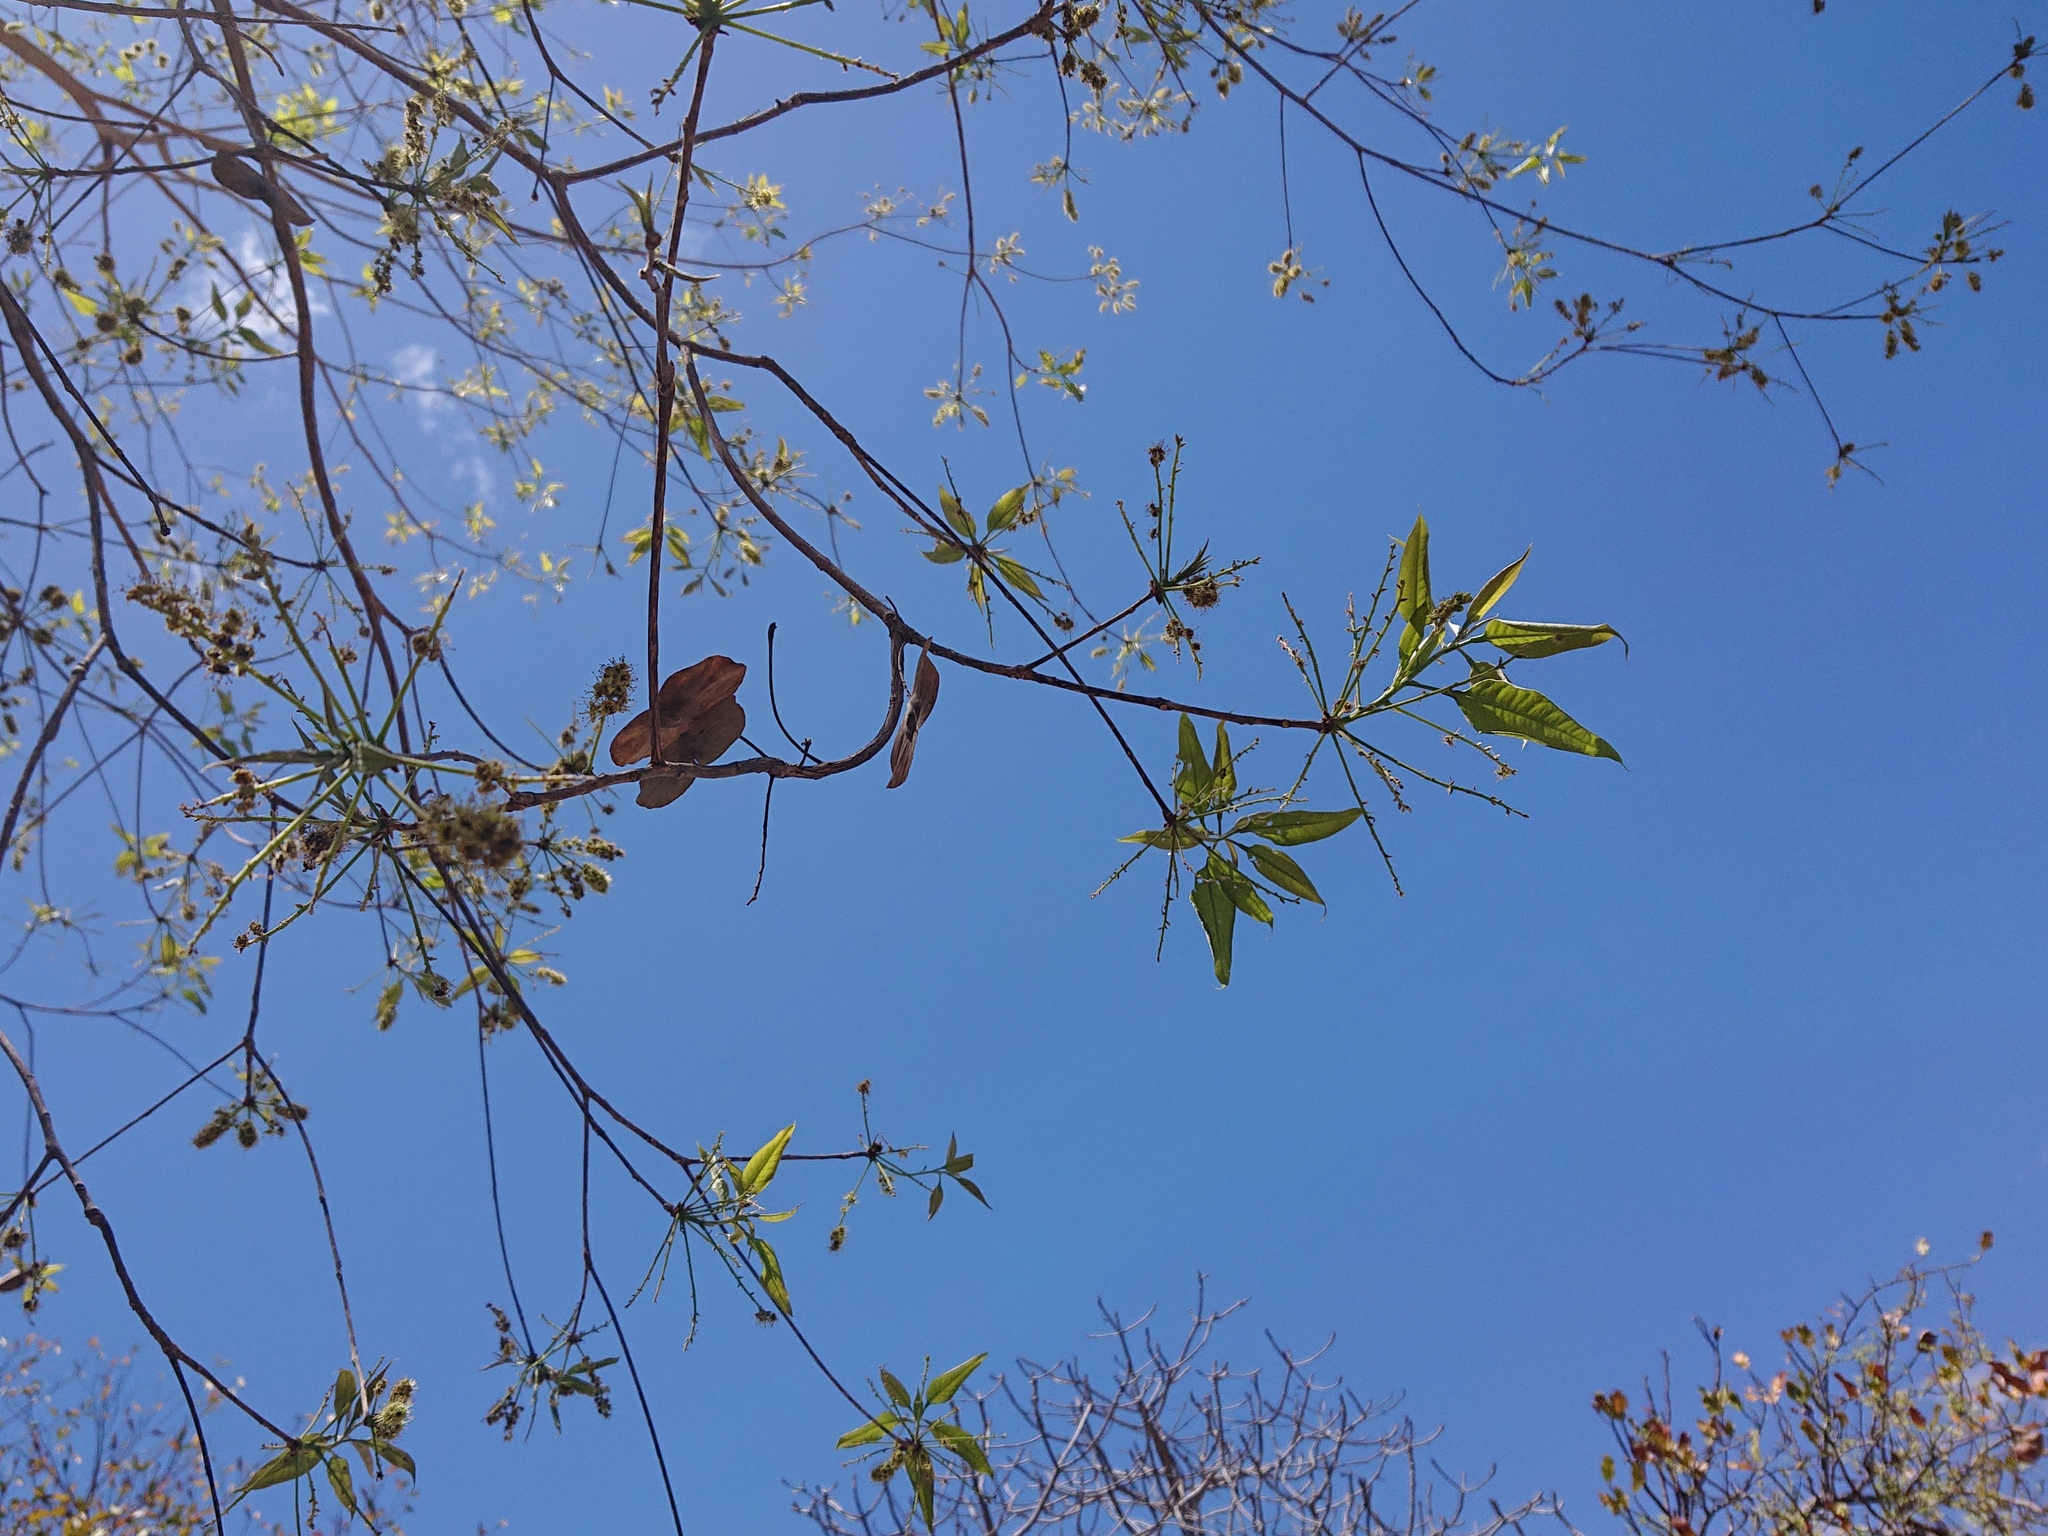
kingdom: Plantae
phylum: Tracheophyta
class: Magnoliopsida
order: Myrtales
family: Combretaceae
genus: Terminalia
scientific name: Terminalia argentea
